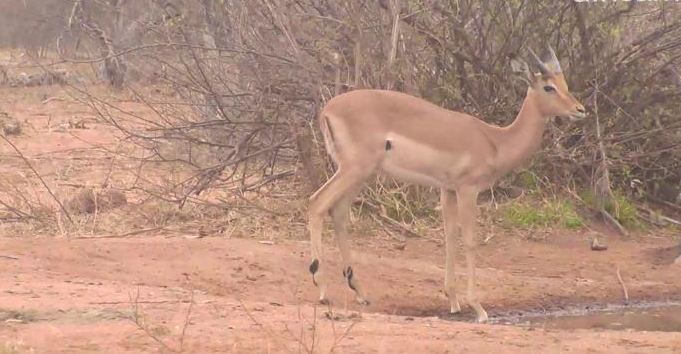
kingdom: Animalia
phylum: Chordata
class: Mammalia
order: Artiodactyla
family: Bovidae
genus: Aepyceros
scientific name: Aepyceros melampus
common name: Impala
